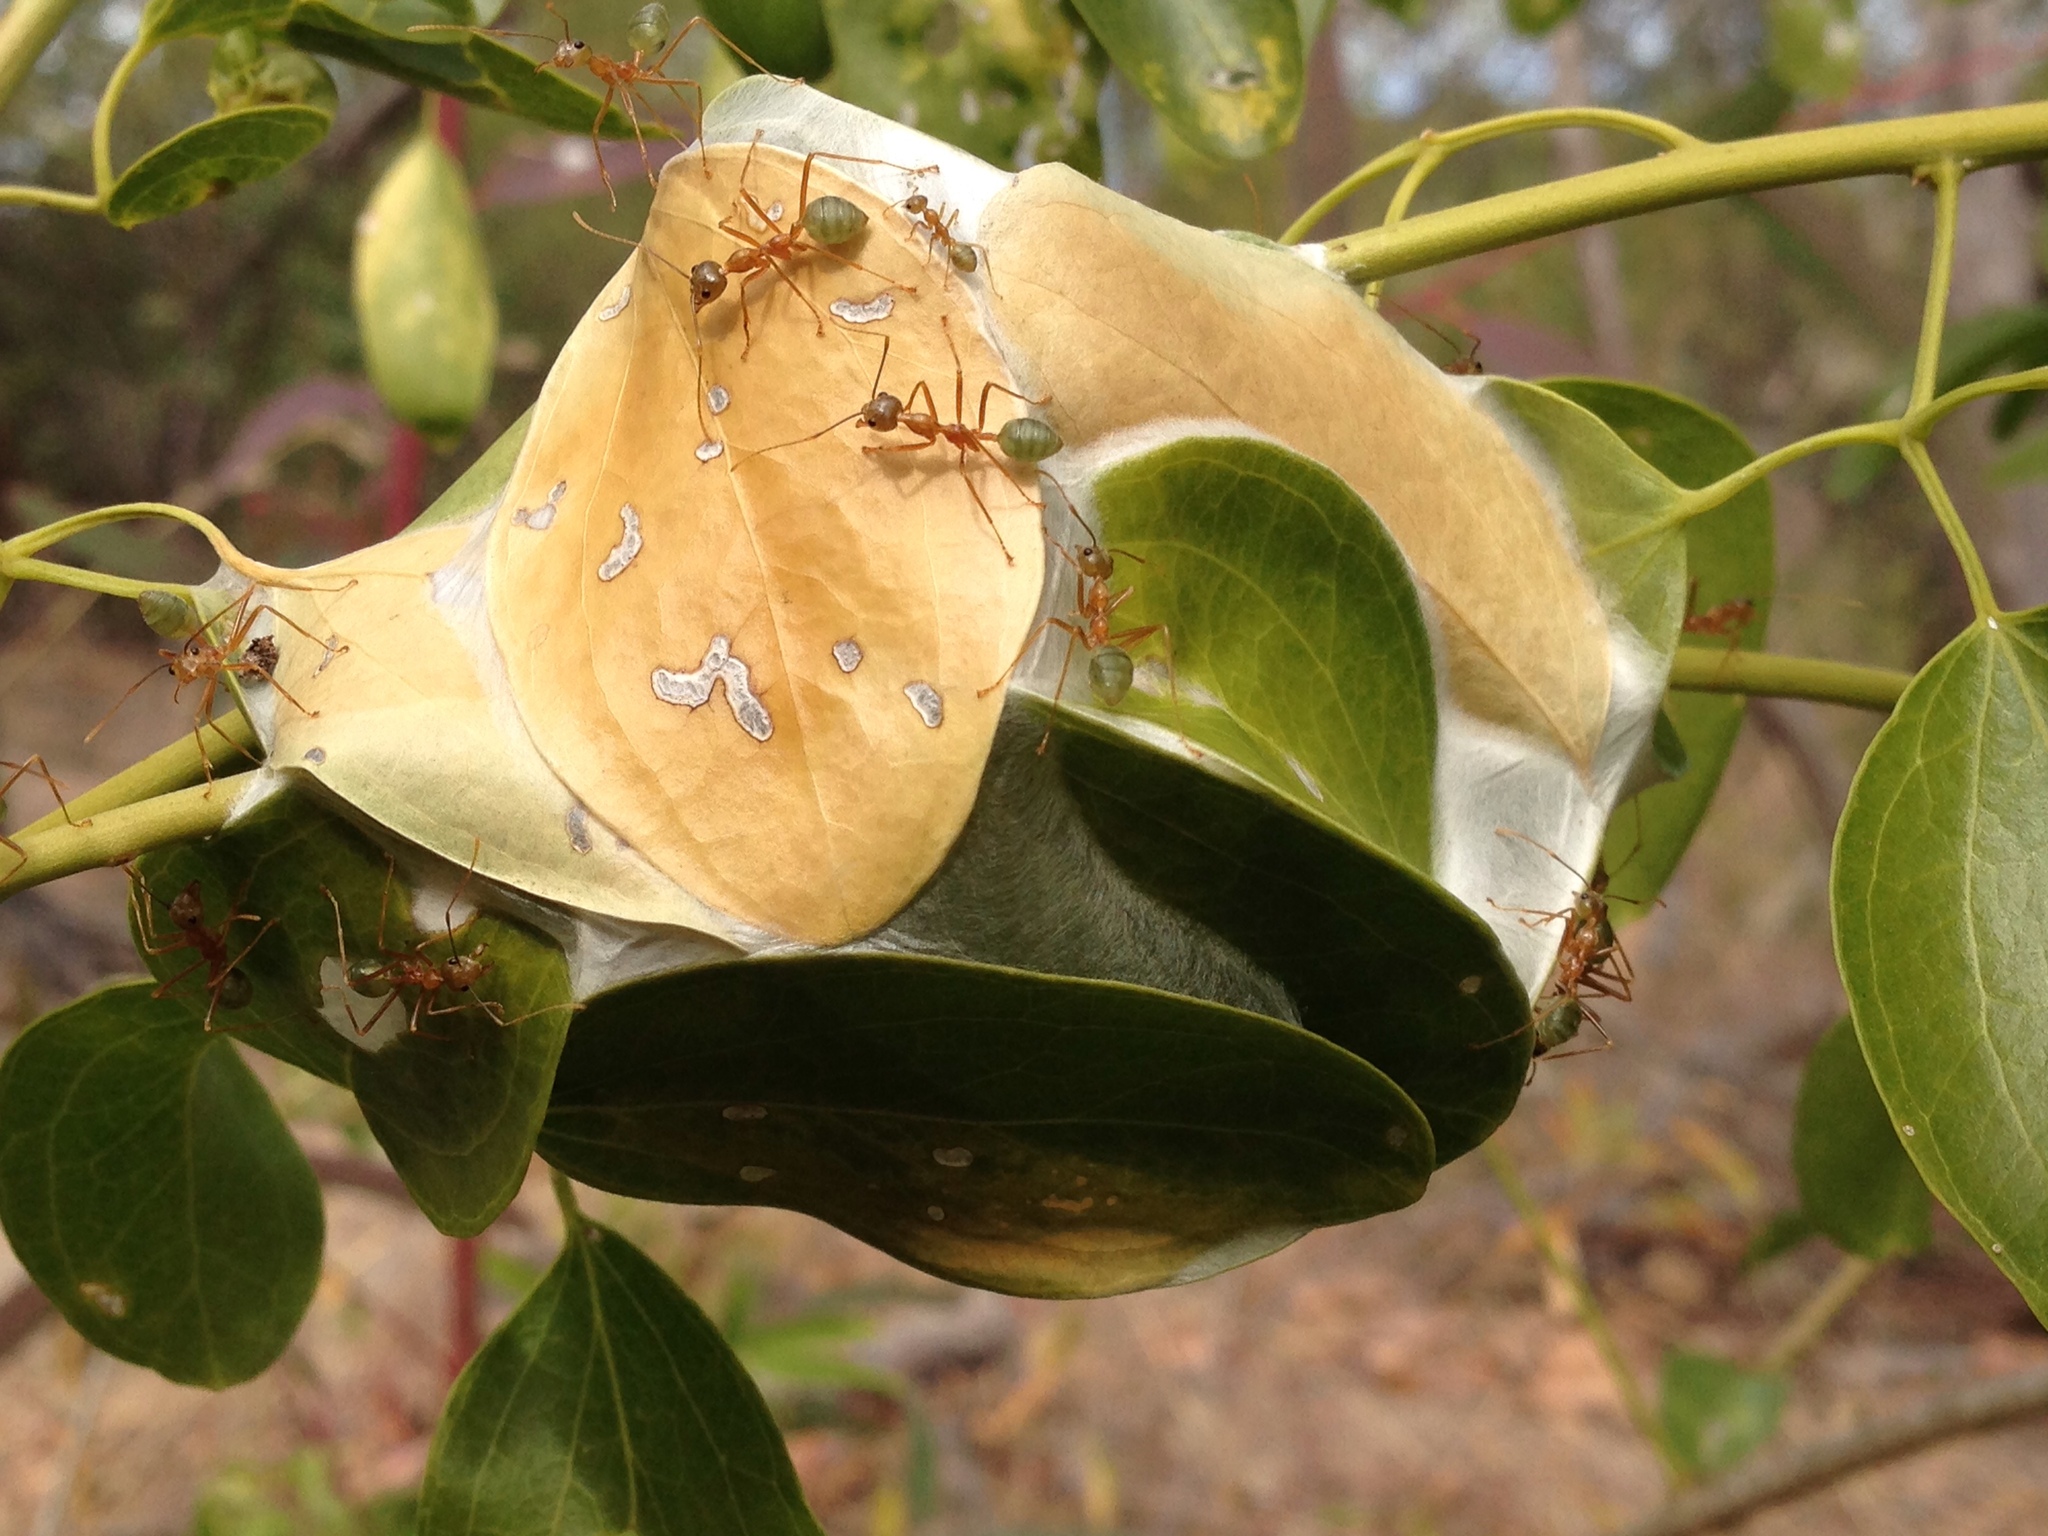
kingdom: Animalia
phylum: Arthropoda
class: Insecta
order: Hymenoptera
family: Formicidae
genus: Oecophylla
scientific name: Oecophylla smaragdina
